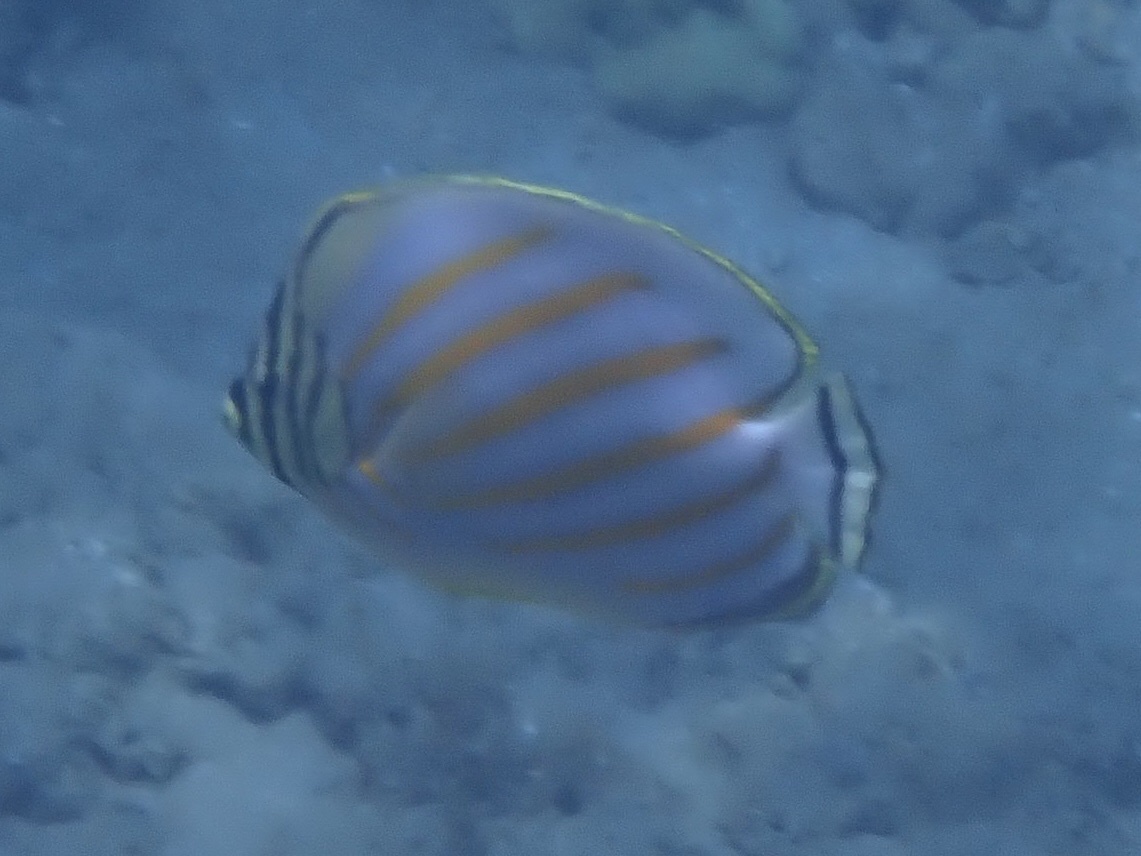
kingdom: Animalia
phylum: Chordata
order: Perciformes
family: Chaetodontidae
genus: Chaetodon
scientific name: Chaetodon ornatissimus
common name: Ornate butterflyfish
